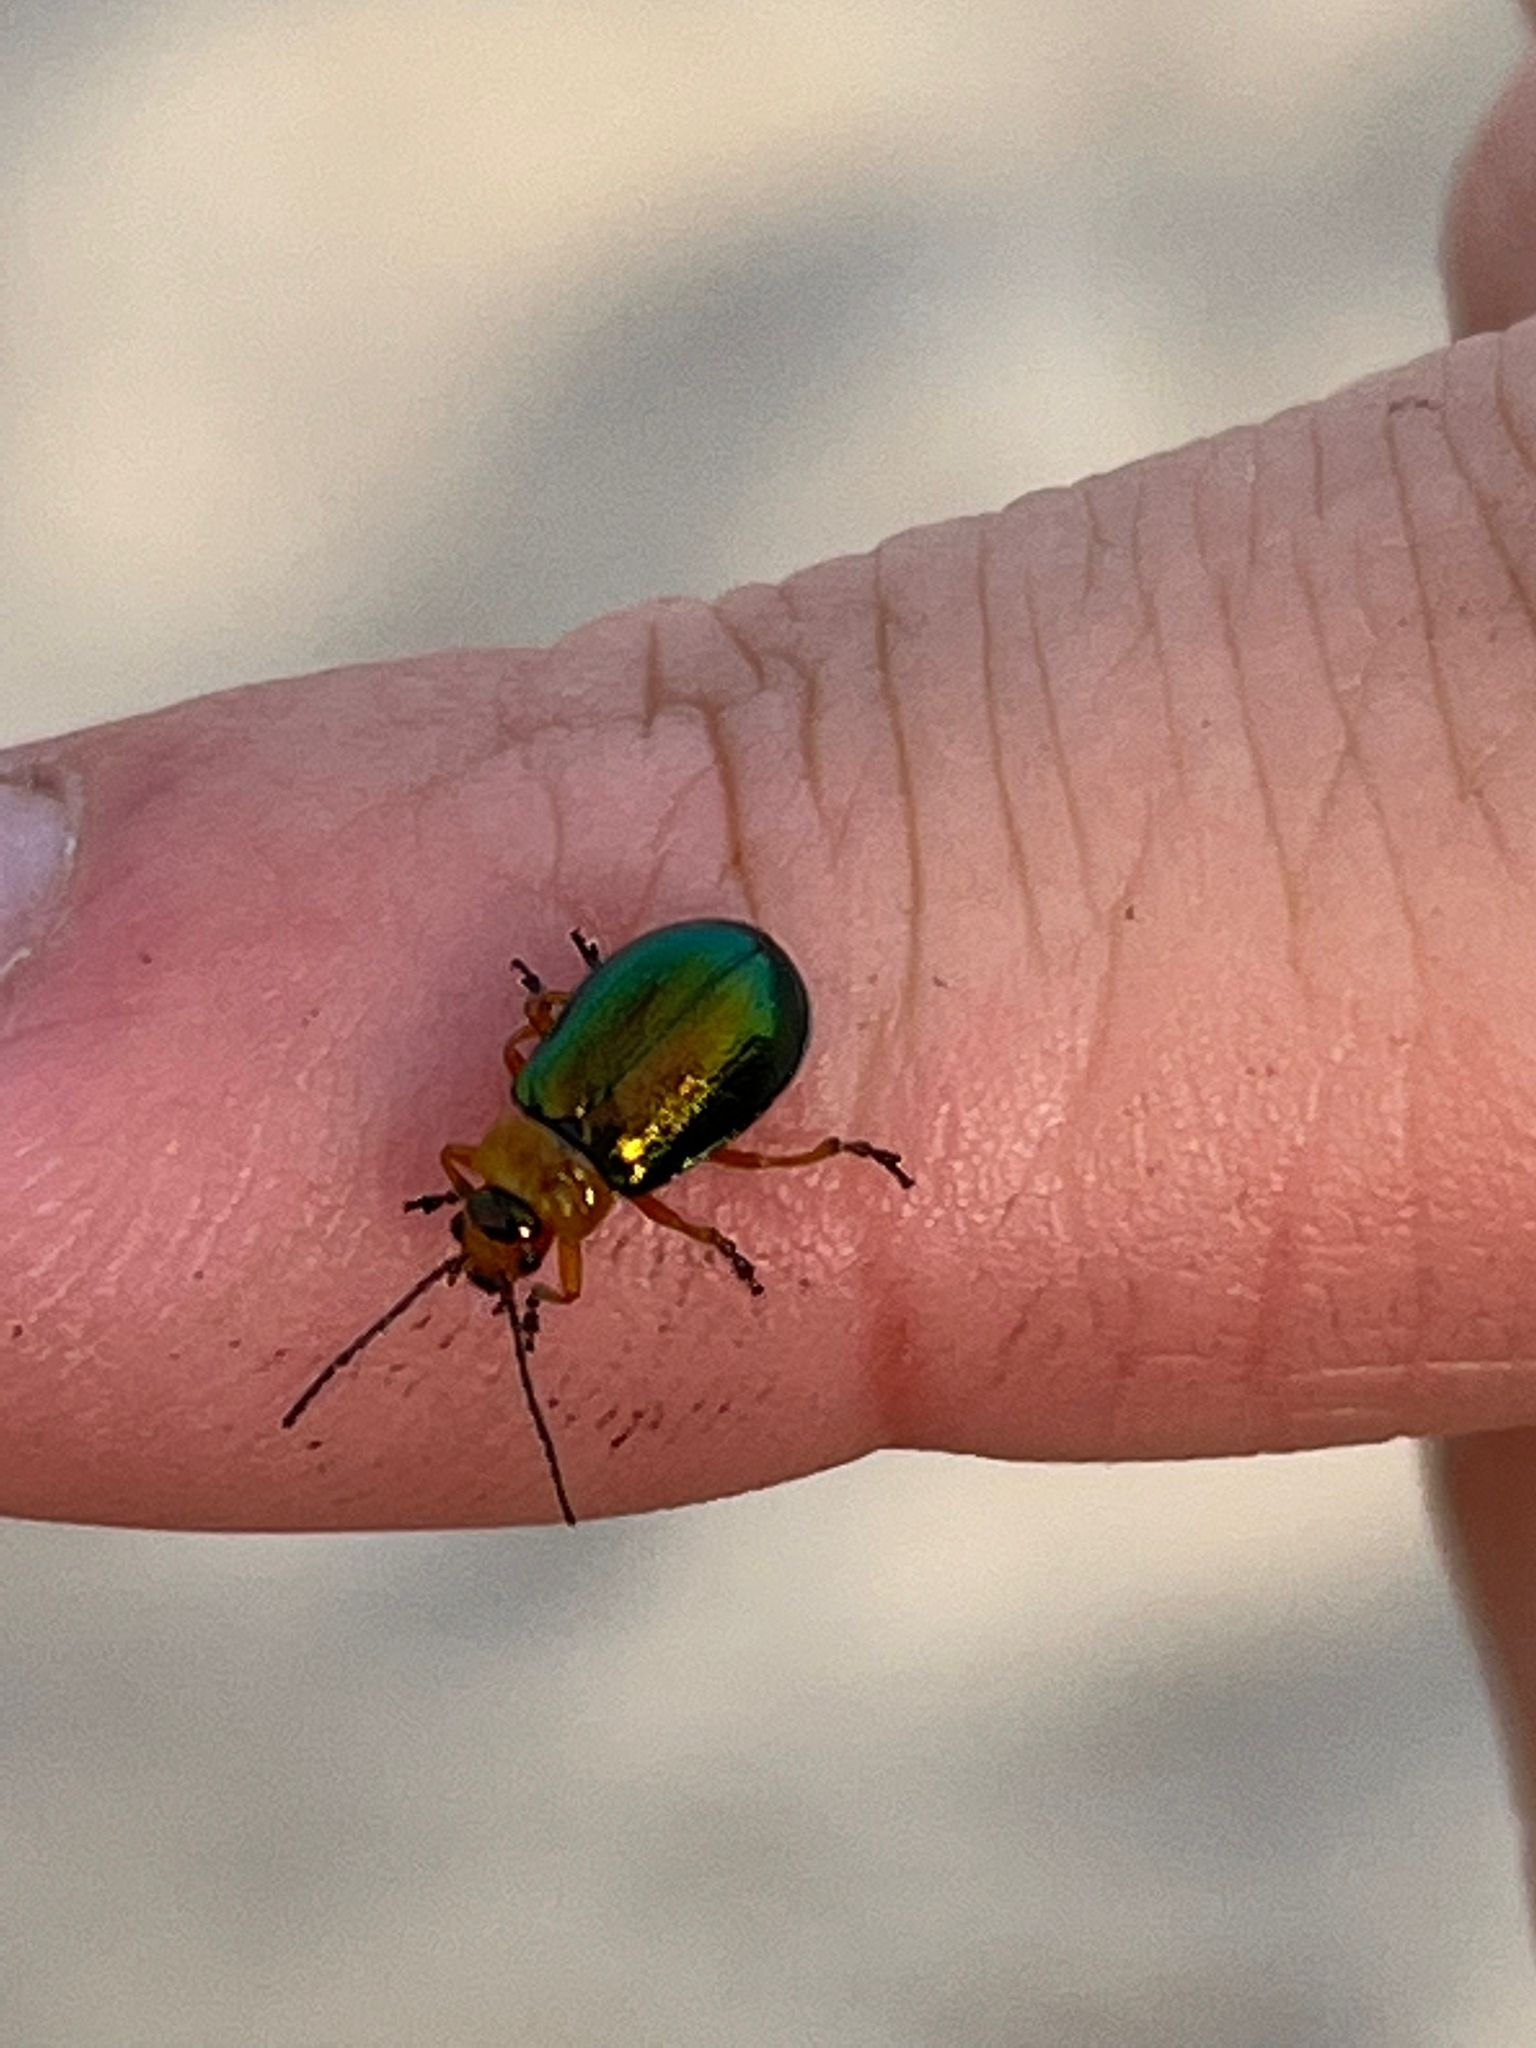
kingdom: Animalia
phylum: Arthropoda
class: Insecta
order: Coleoptera
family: Chrysomelidae
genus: Sermylassa
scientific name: Sermylassa halensis
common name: Leaf beetle
